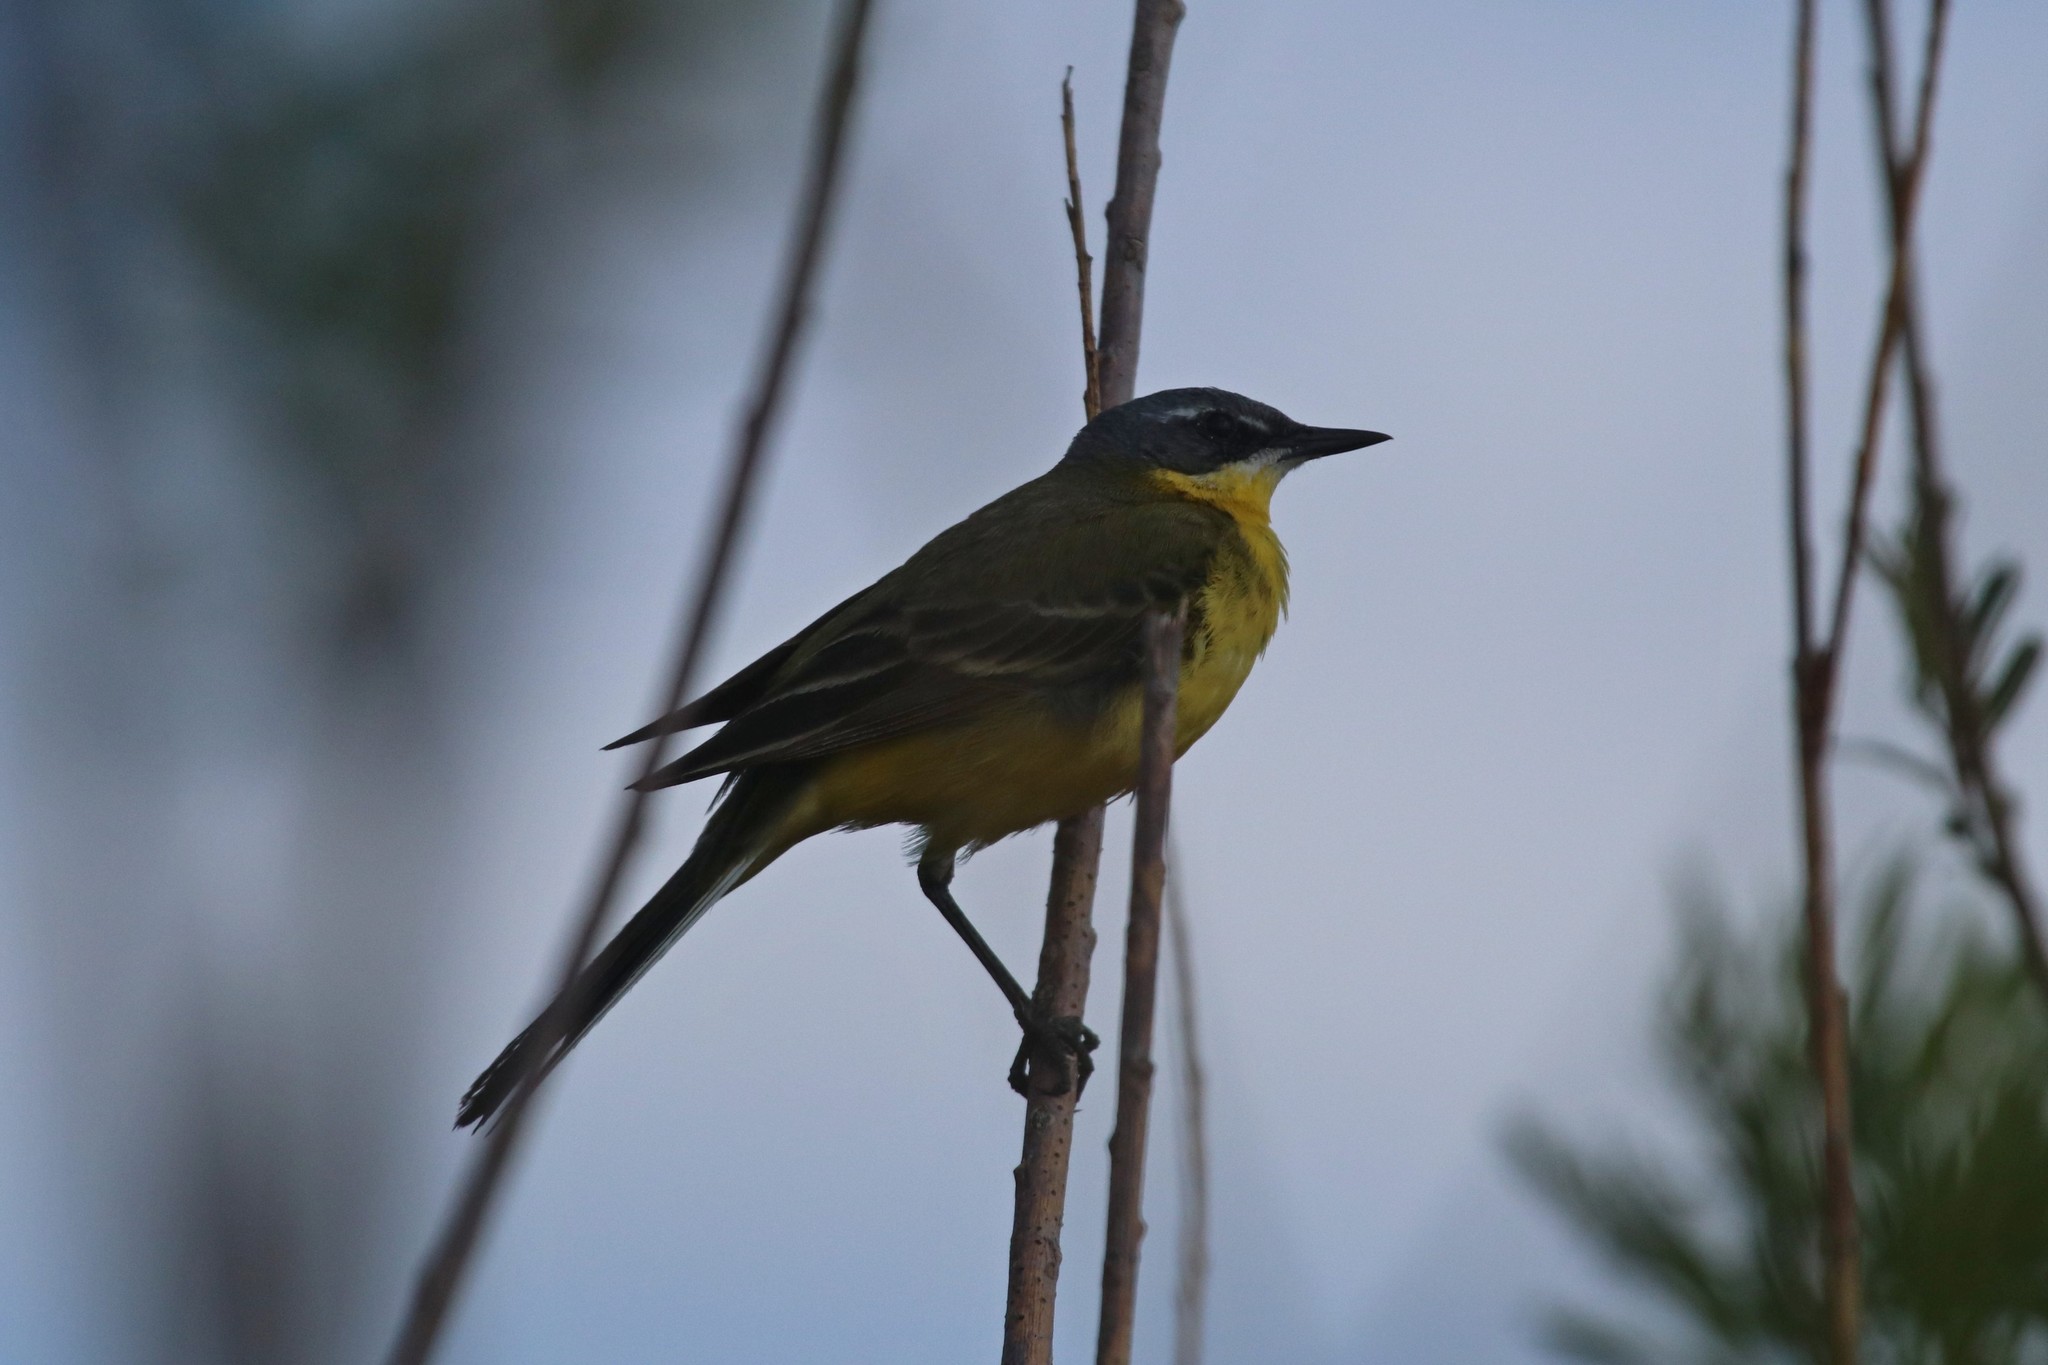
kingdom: Animalia
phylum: Chordata
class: Aves
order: Passeriformes
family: Motacillidae
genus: Motacilla
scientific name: Motacilla flava
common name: Western yellow wagtail
